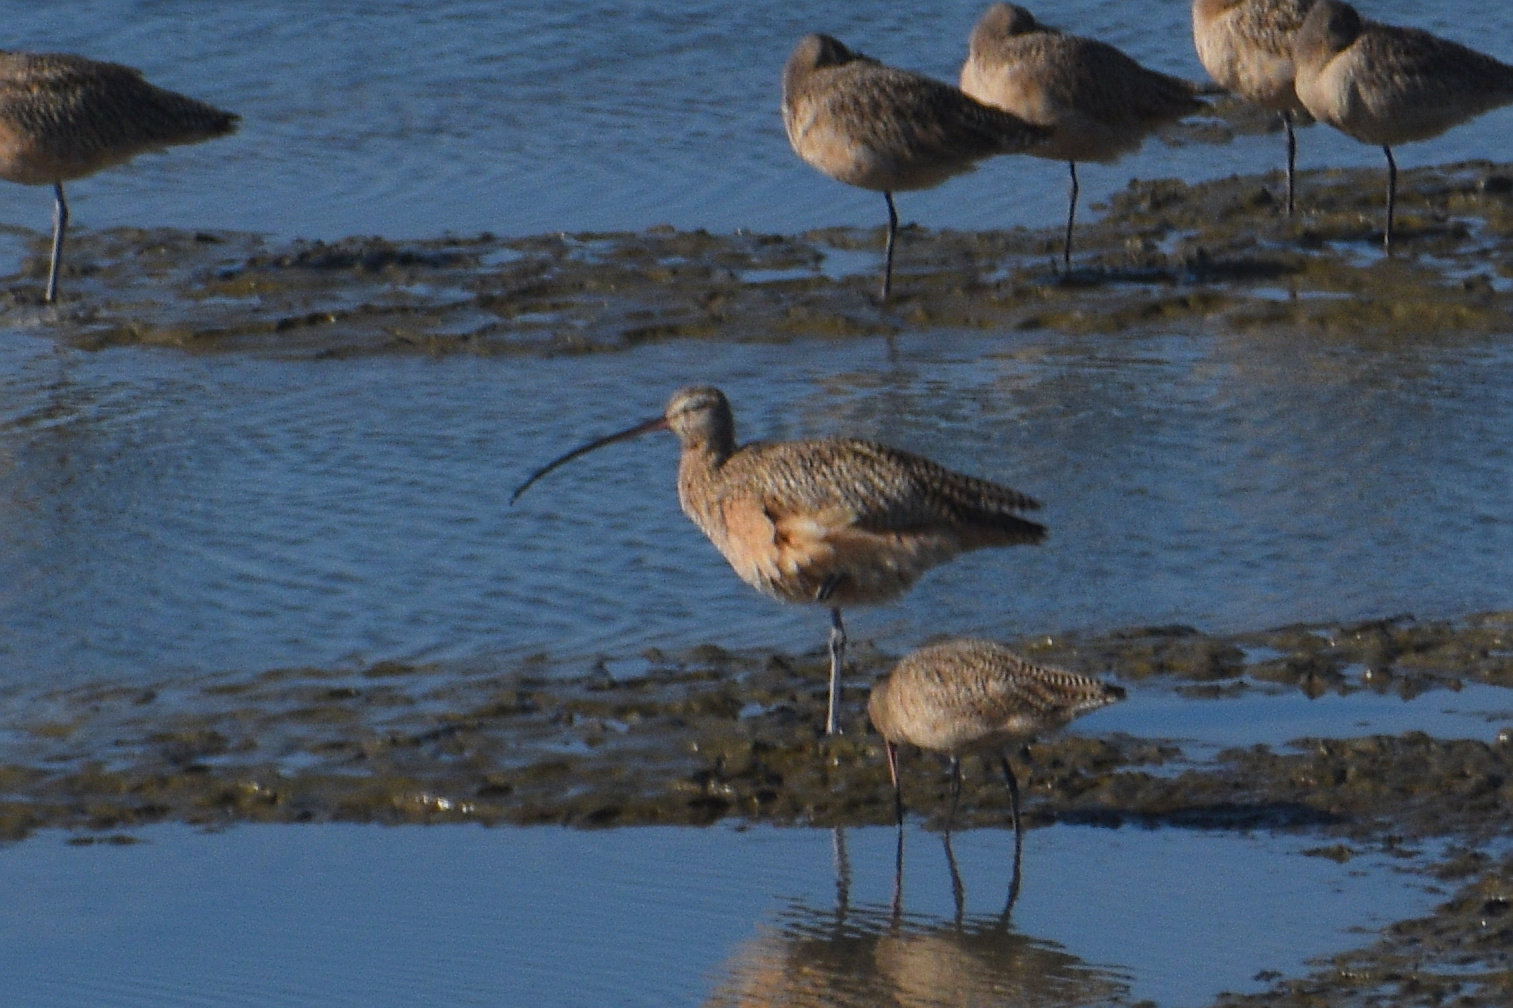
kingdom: Animalia
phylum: Chordata
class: Aves
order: Charadriiformes
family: Scolopacidae
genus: Numenius
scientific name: Numenius americanus
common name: Long-billed curlew
